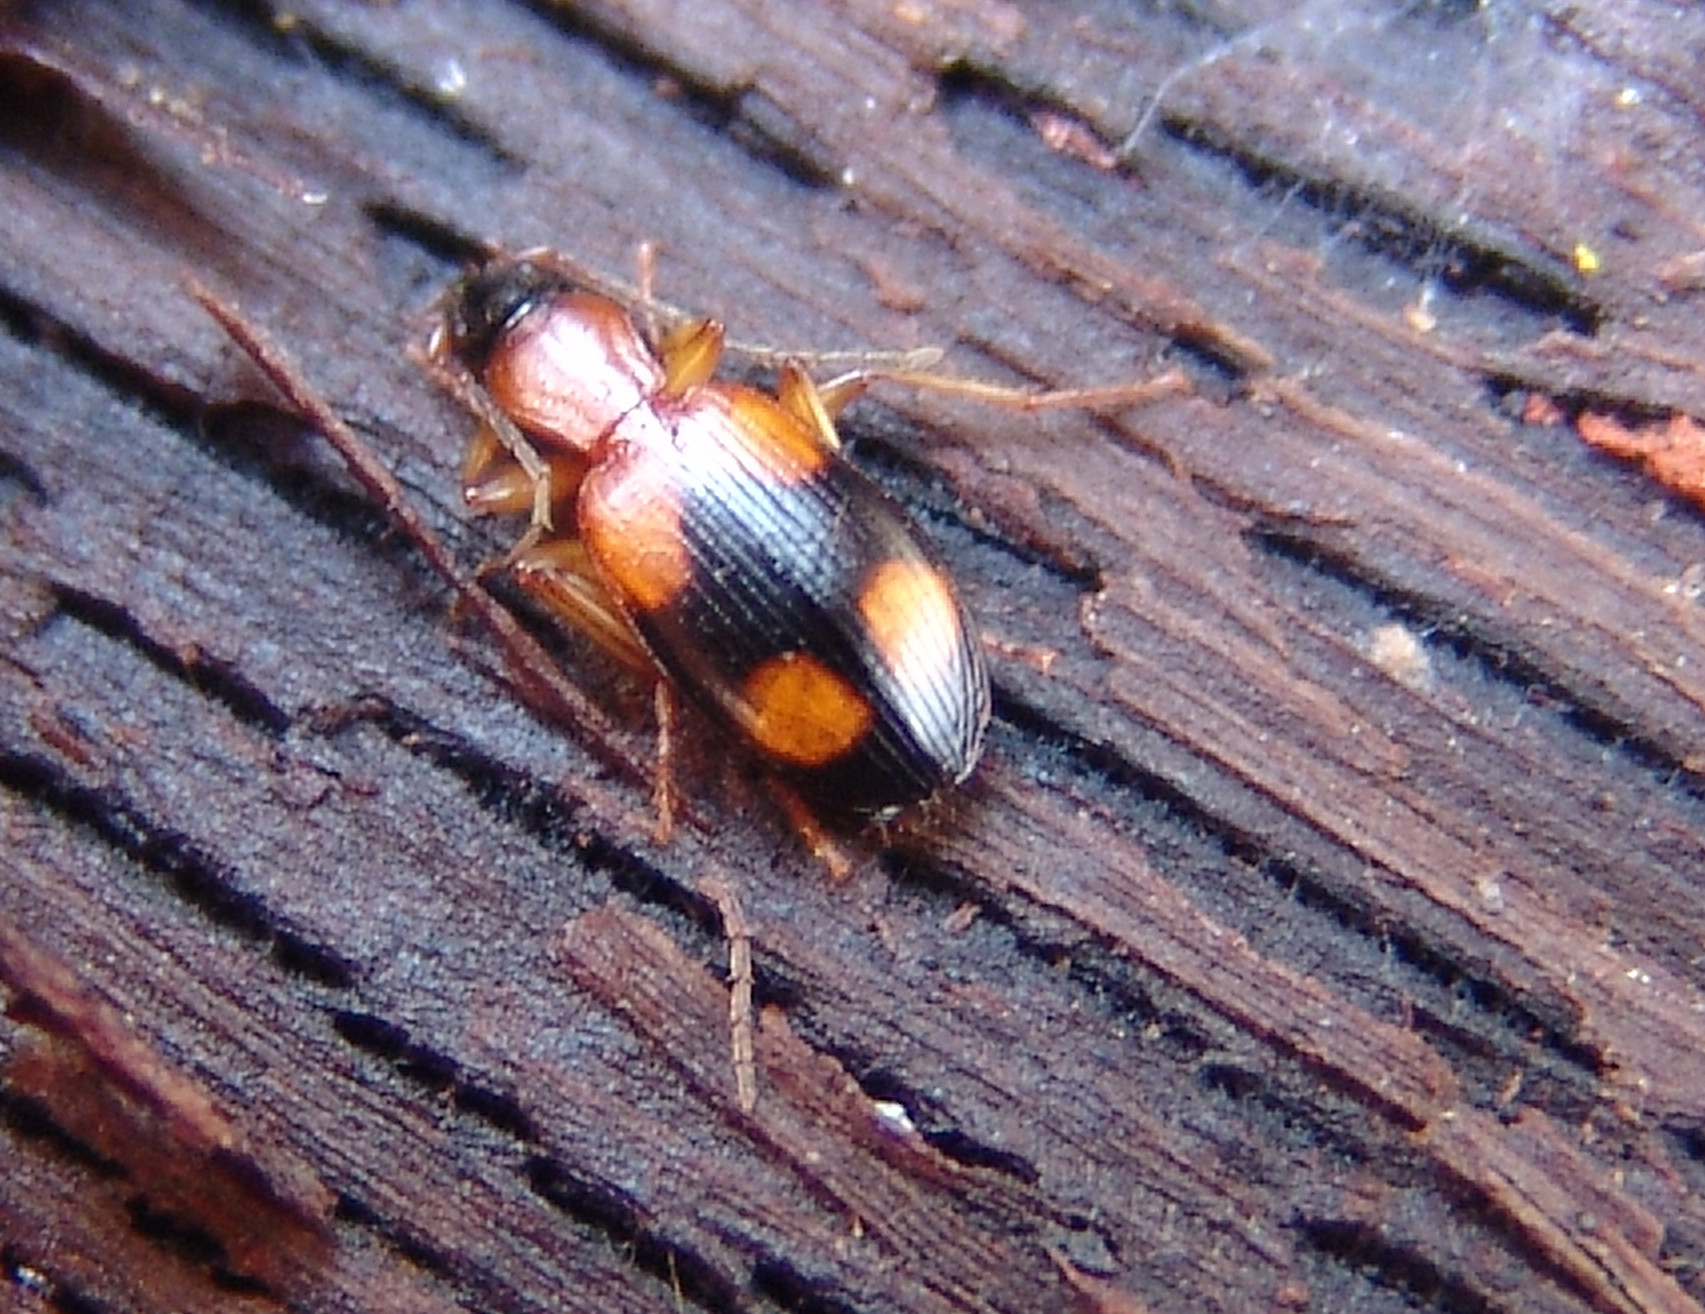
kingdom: Animalia
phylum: Arthropoda
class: Insecta
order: Coleoptera
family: Carabidae
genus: Agonum
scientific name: Agonum quadrimaculatum
